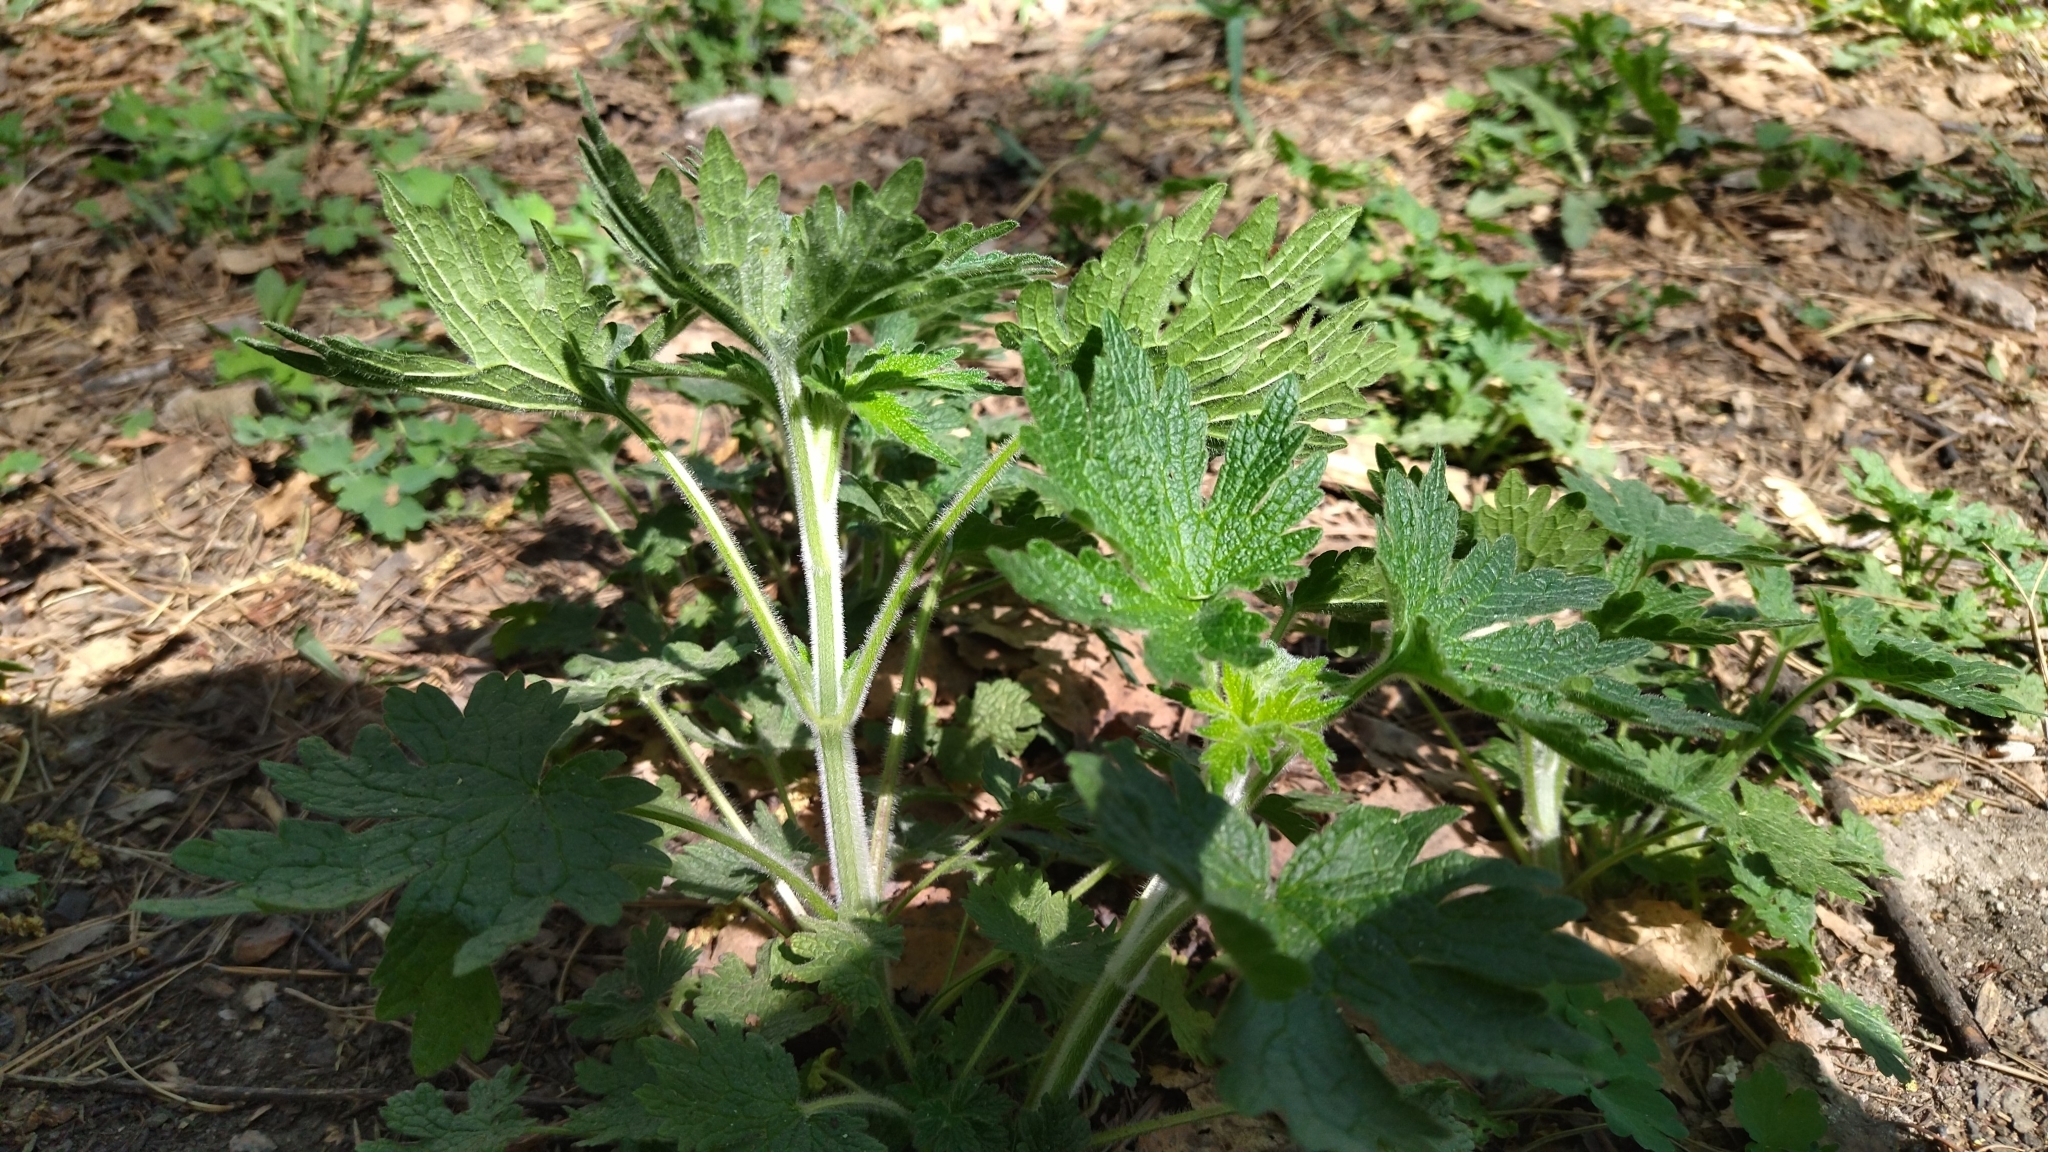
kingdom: Plantae
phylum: Tracheophyta
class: Magnoliopsida
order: Lamiales
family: Lamiaceae
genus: Leonurus
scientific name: Leonurus quinquelobatus
